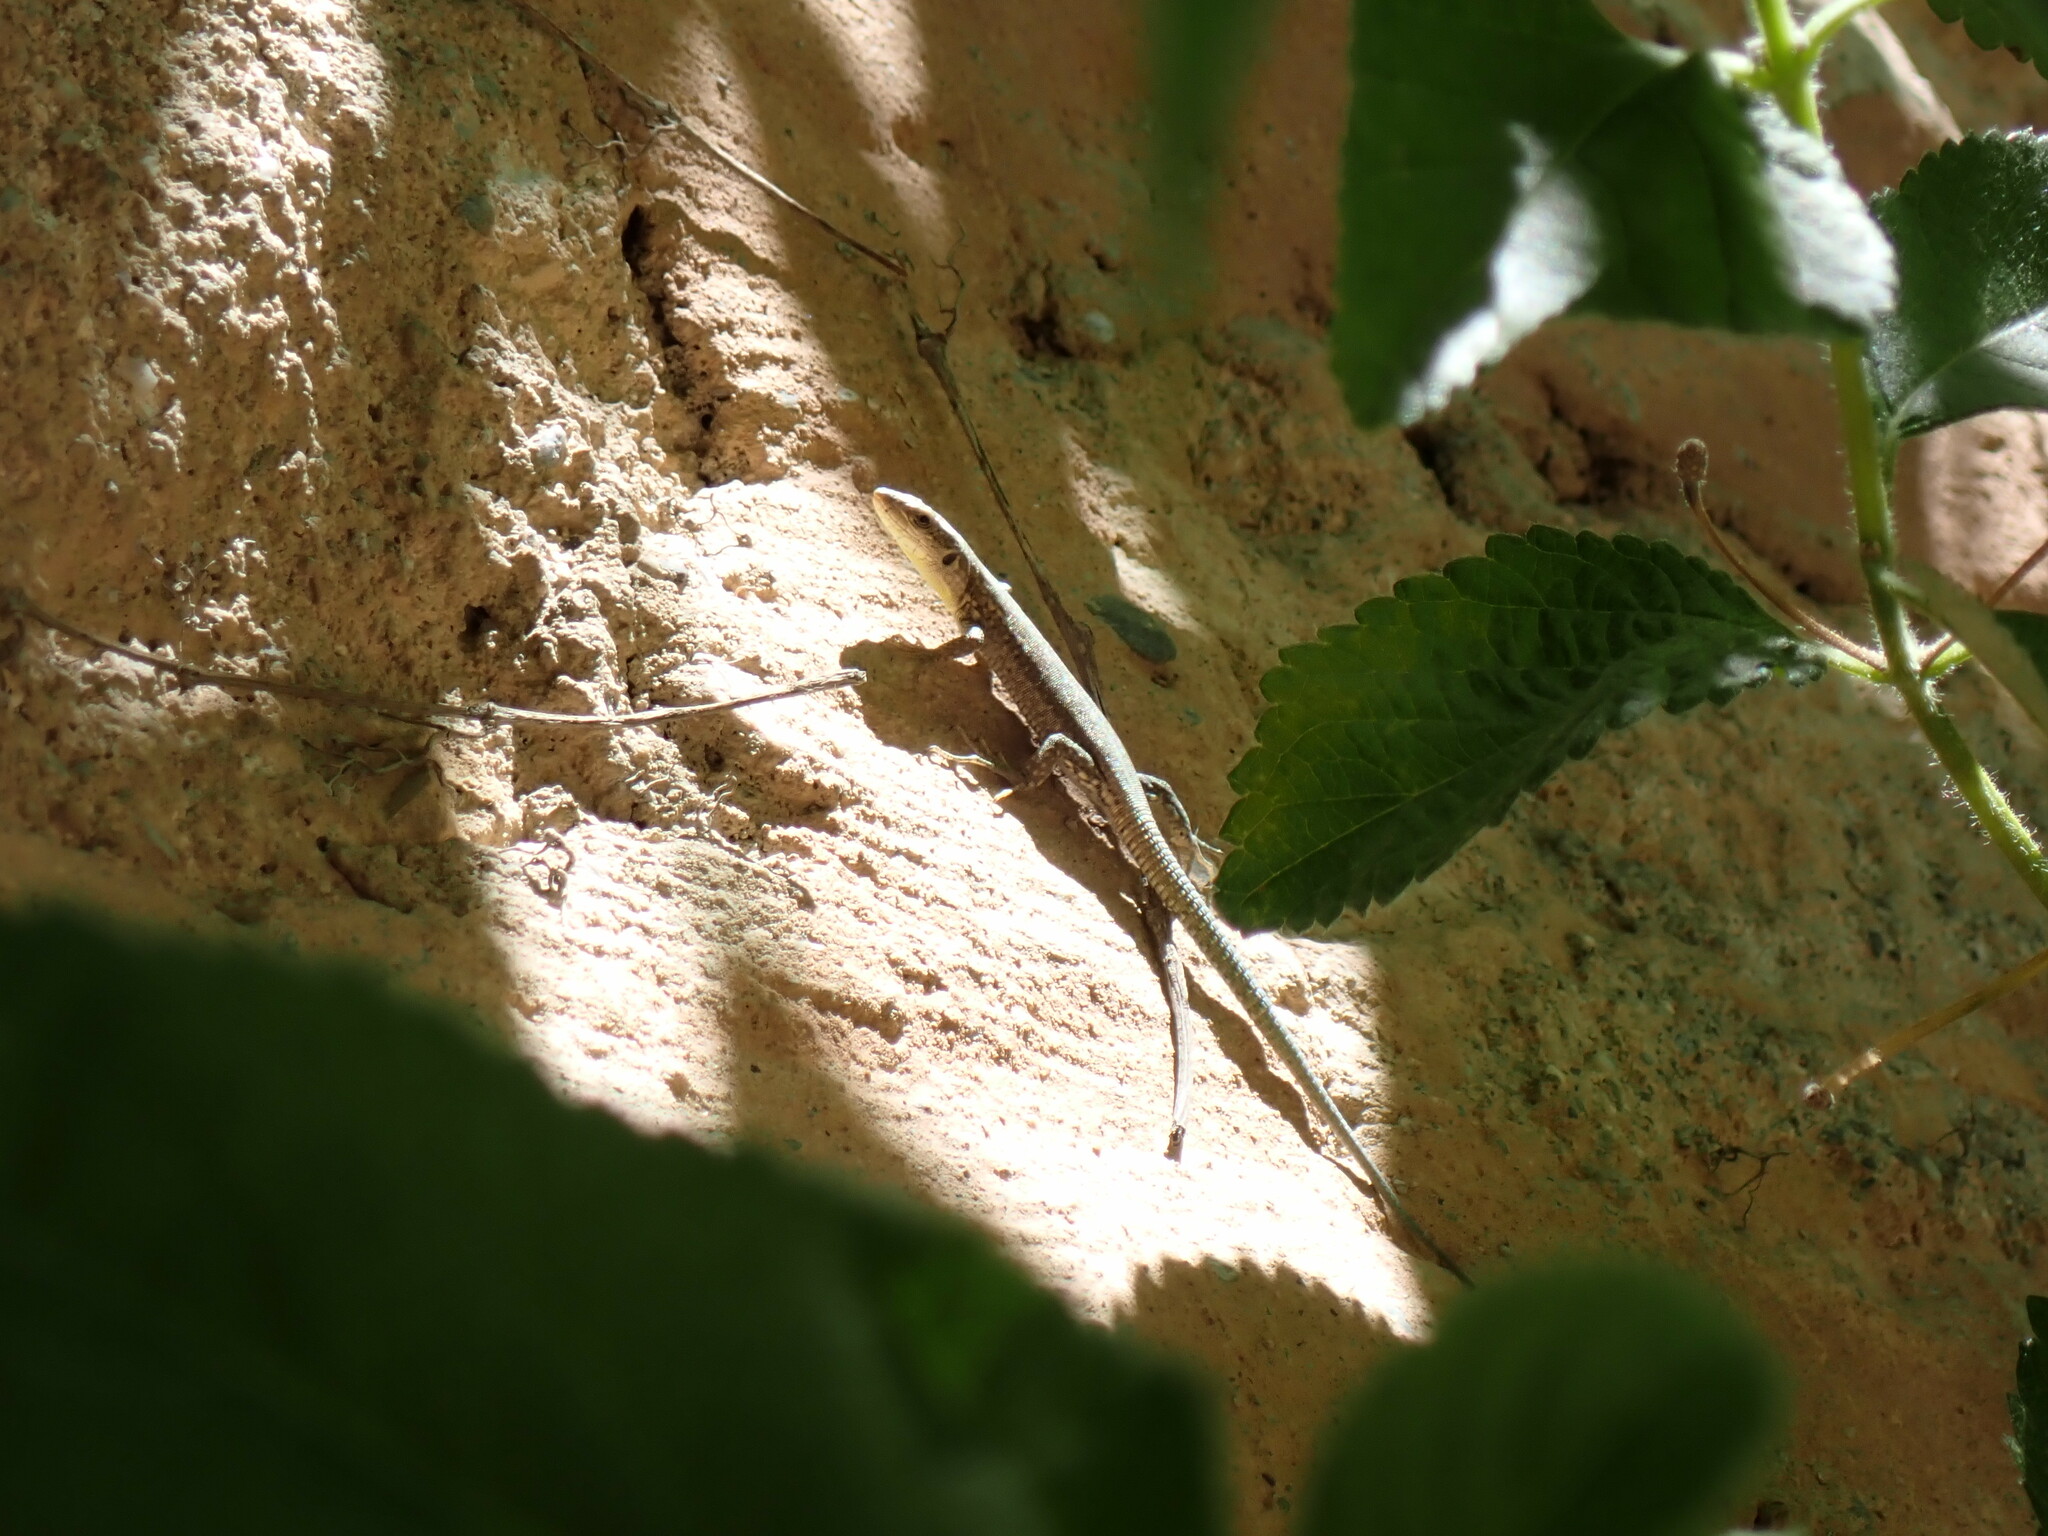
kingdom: Animalia
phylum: Chordata
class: Squamata
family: Lacertidae
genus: Podarcis
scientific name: Podarcis vaucheri
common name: Vaucher's wall lizard
